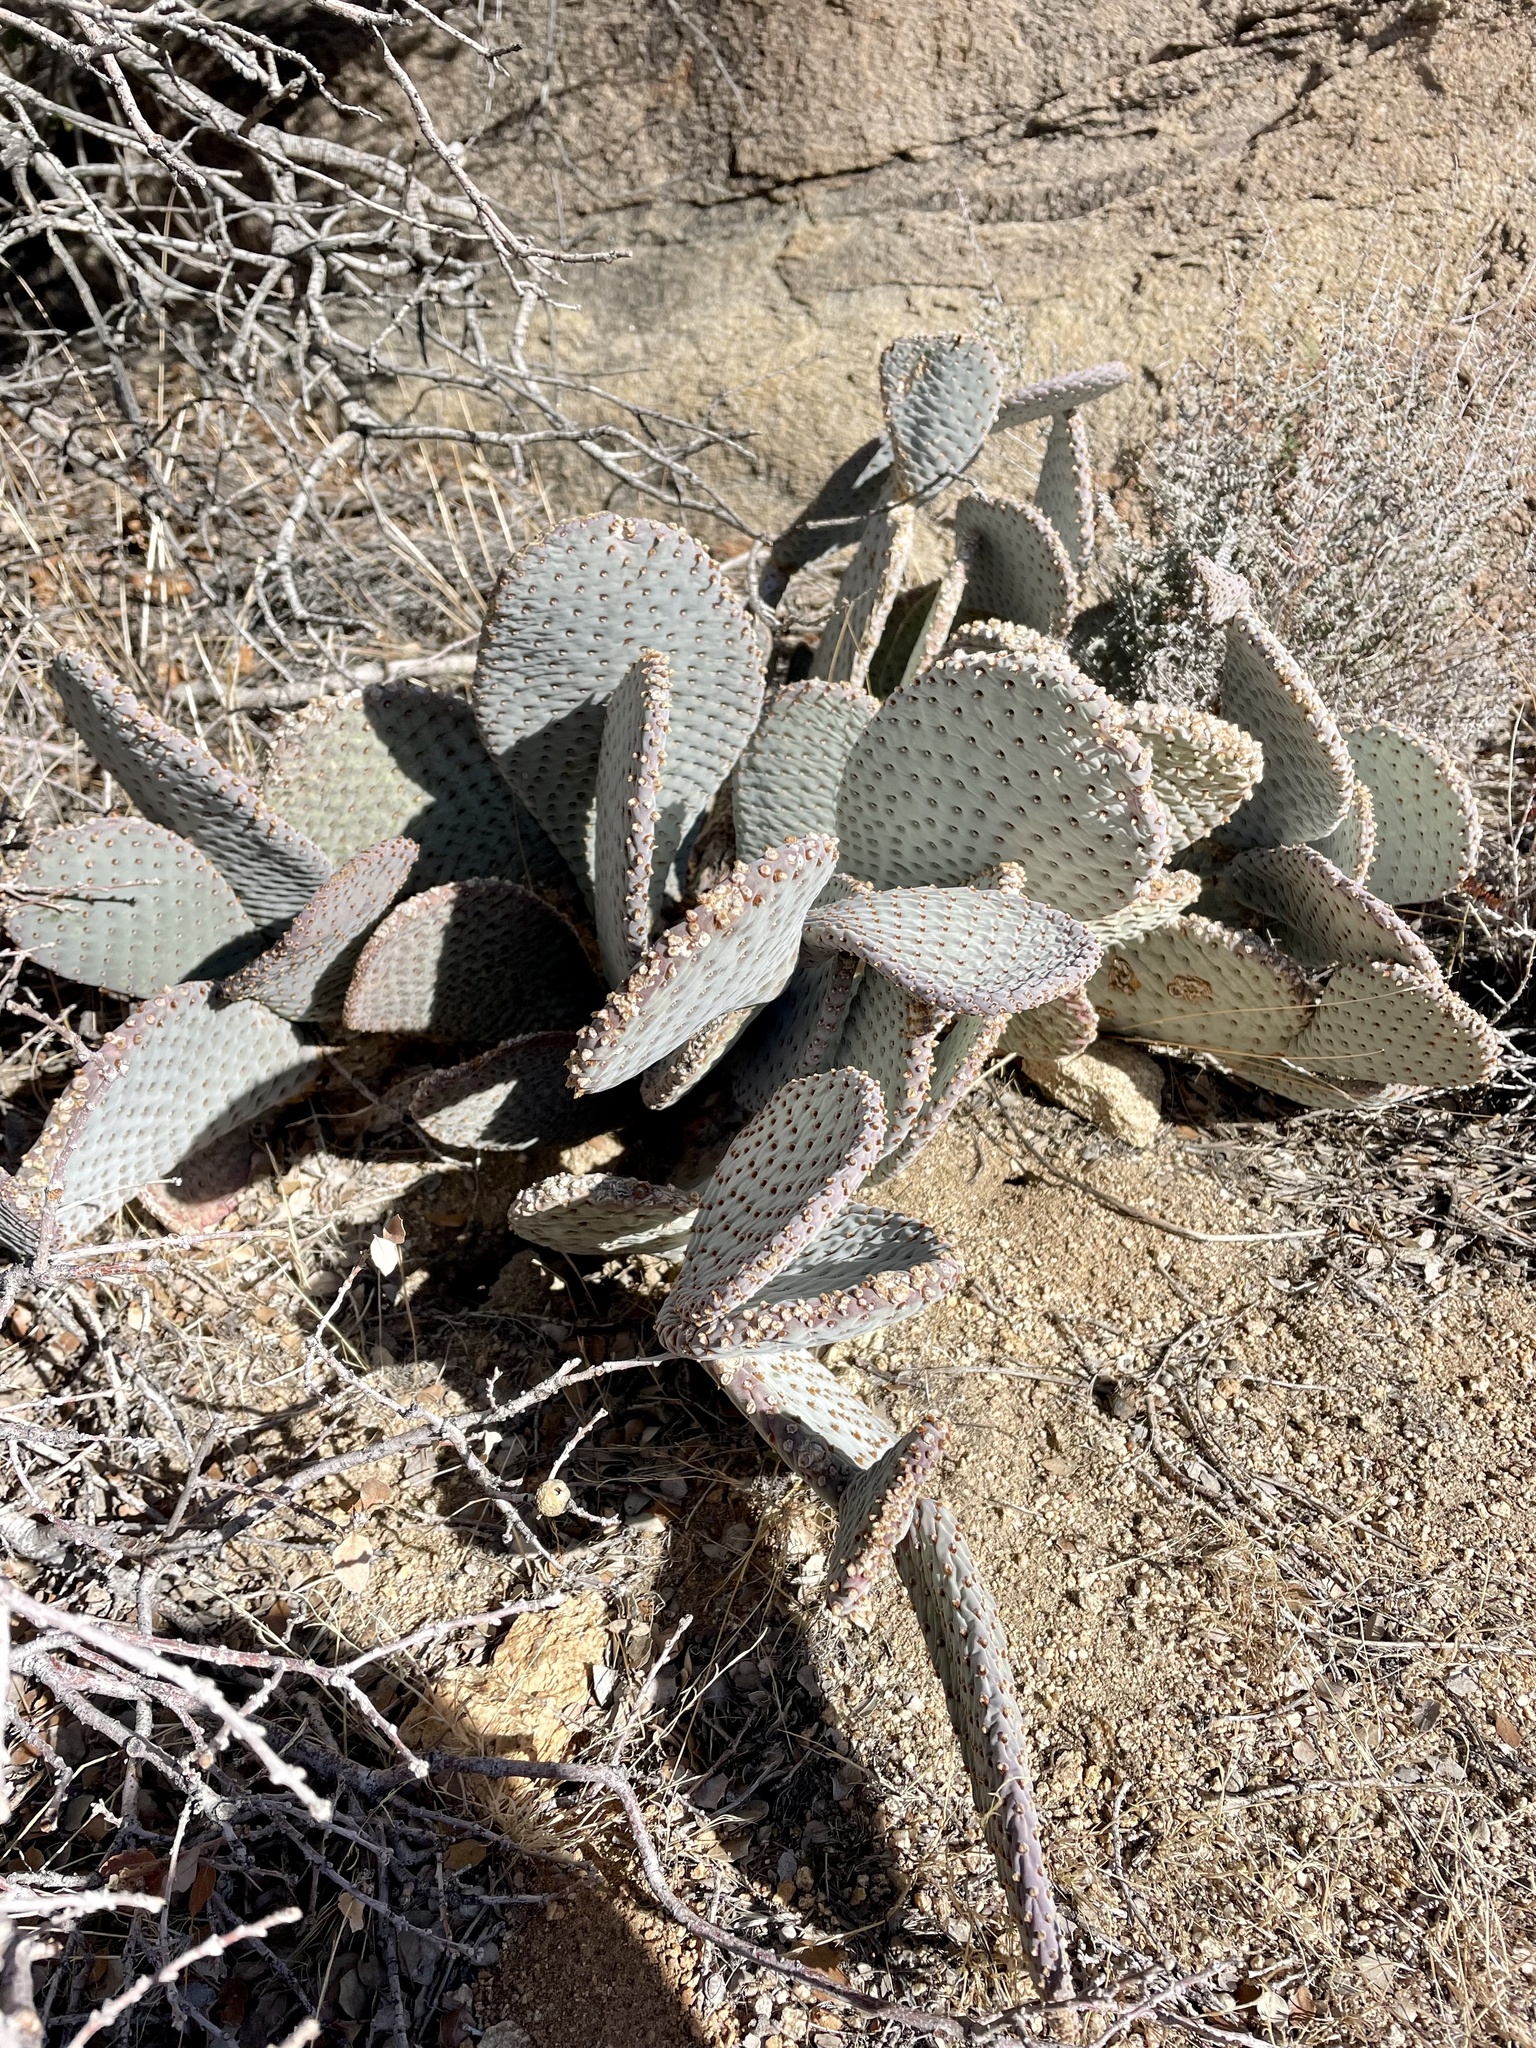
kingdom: Plantae
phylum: Tracheophyta
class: Magnoliopsida
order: Caryophyllales
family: Cactaceae
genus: Opuntia
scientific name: Opuntia basilaris
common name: Beavertail prickly-pear
